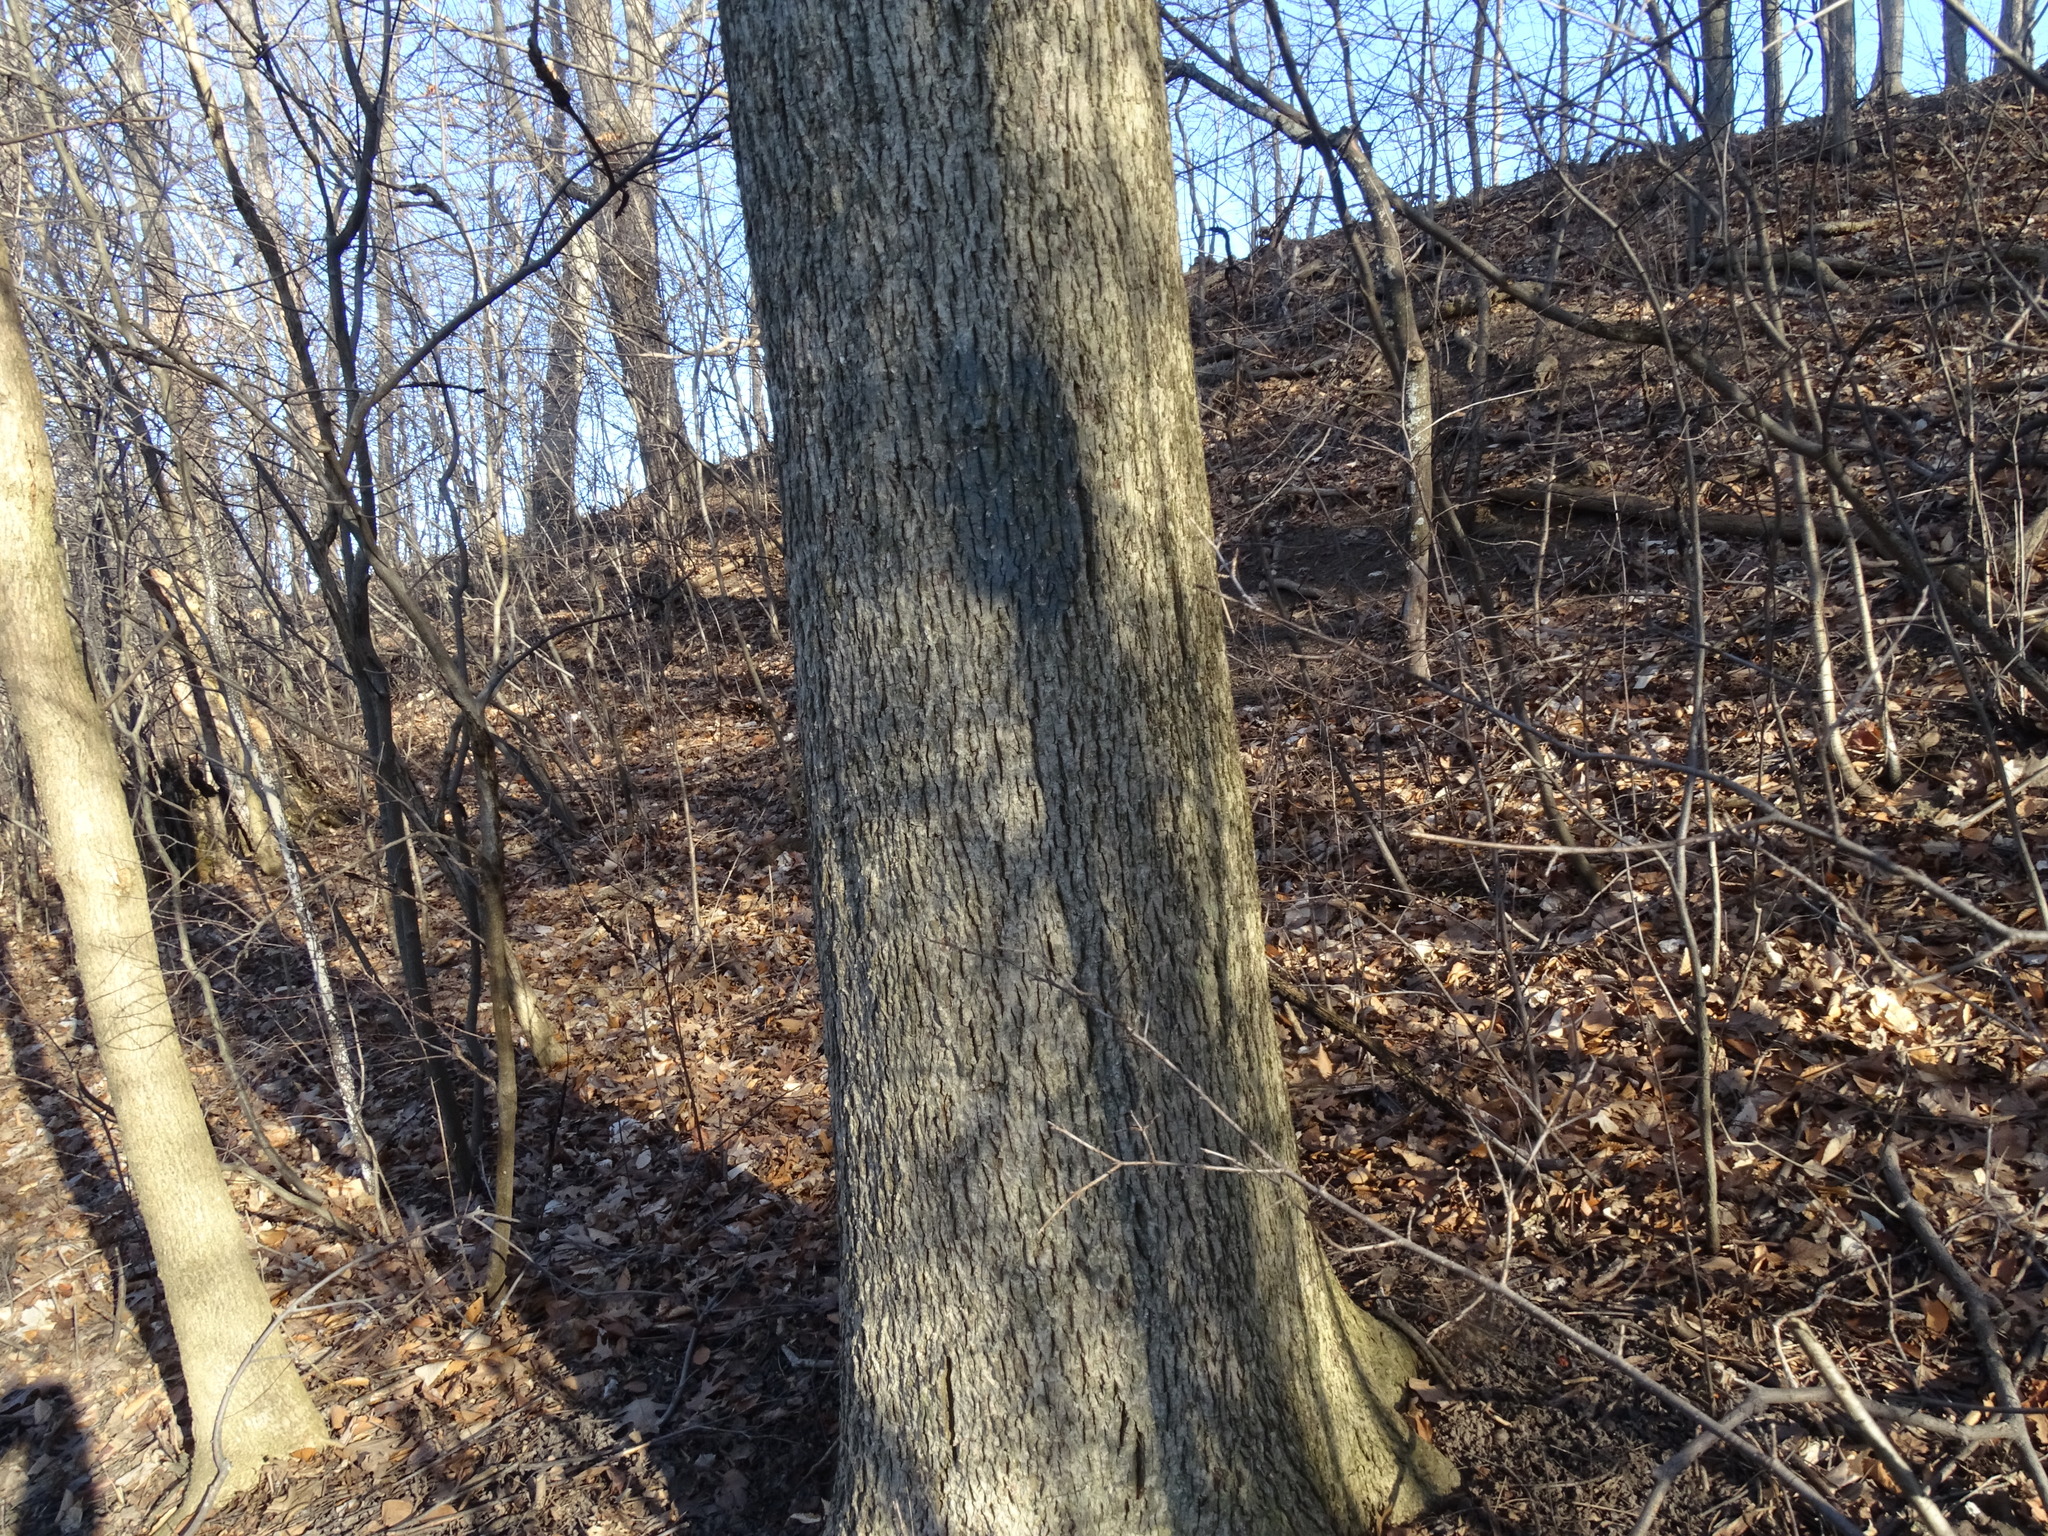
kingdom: Plantae
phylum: Tracheophyta
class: Magnoliopsida
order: Fagales
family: Juglandaceae
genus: Carya
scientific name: Carya cordiformis
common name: Bitternut hickory
